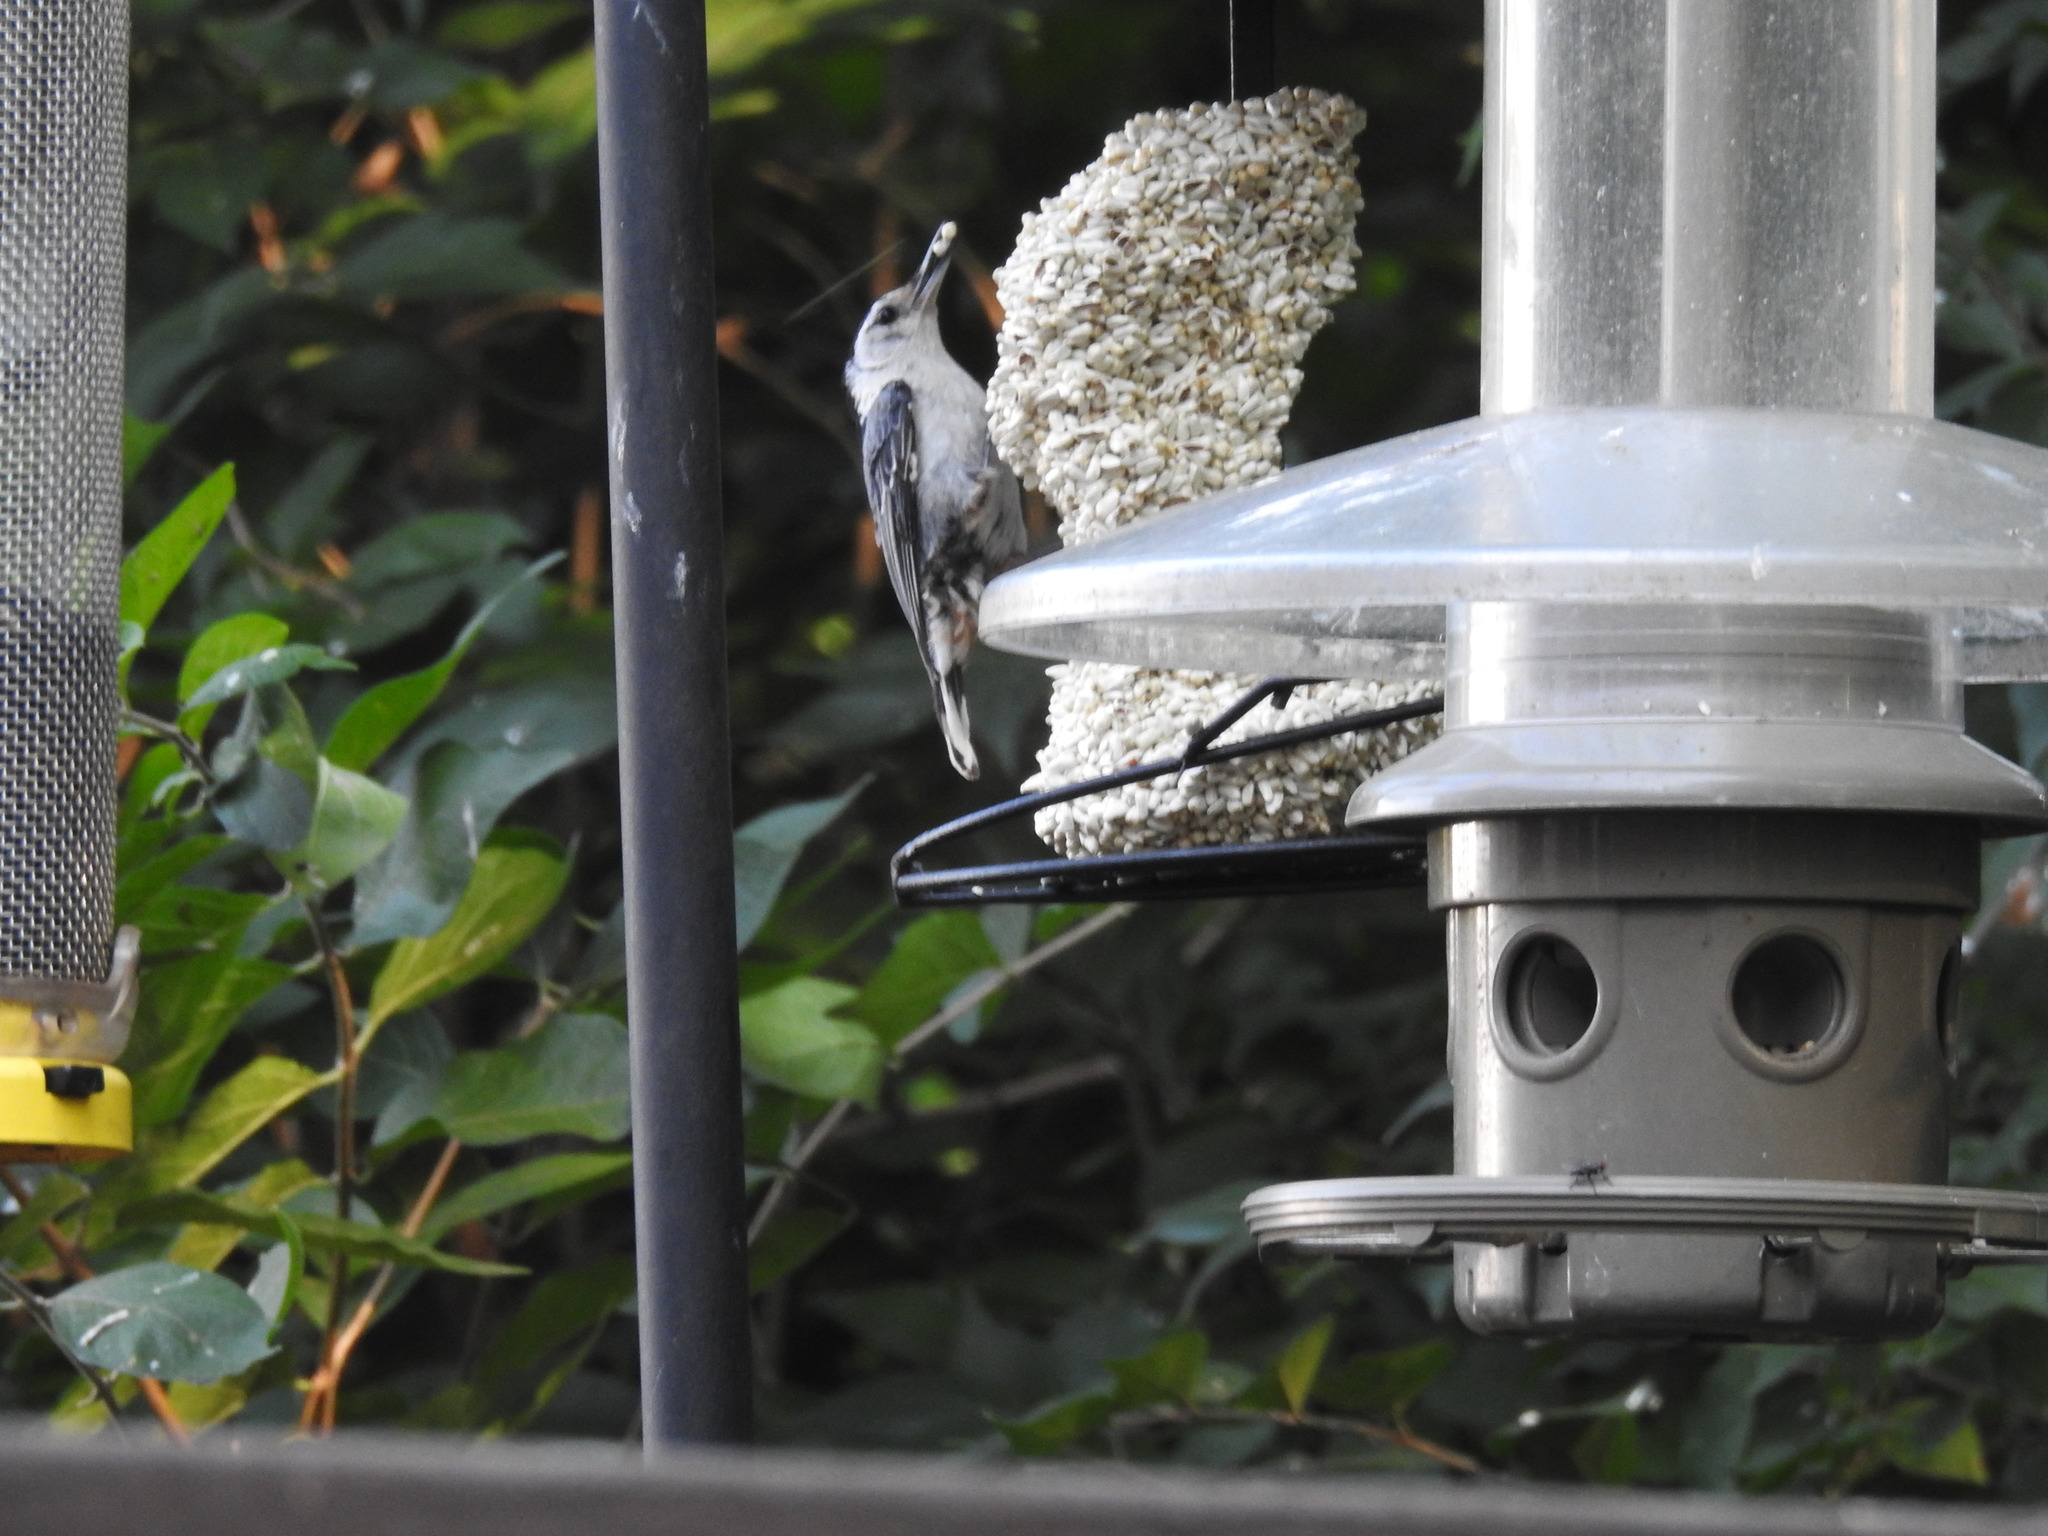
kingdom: Animalia
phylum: Chordata
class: Aves
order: Passeriformes
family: Sittidae
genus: Sitta
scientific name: Sitta carolinensis
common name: White-breasted nuthatch
